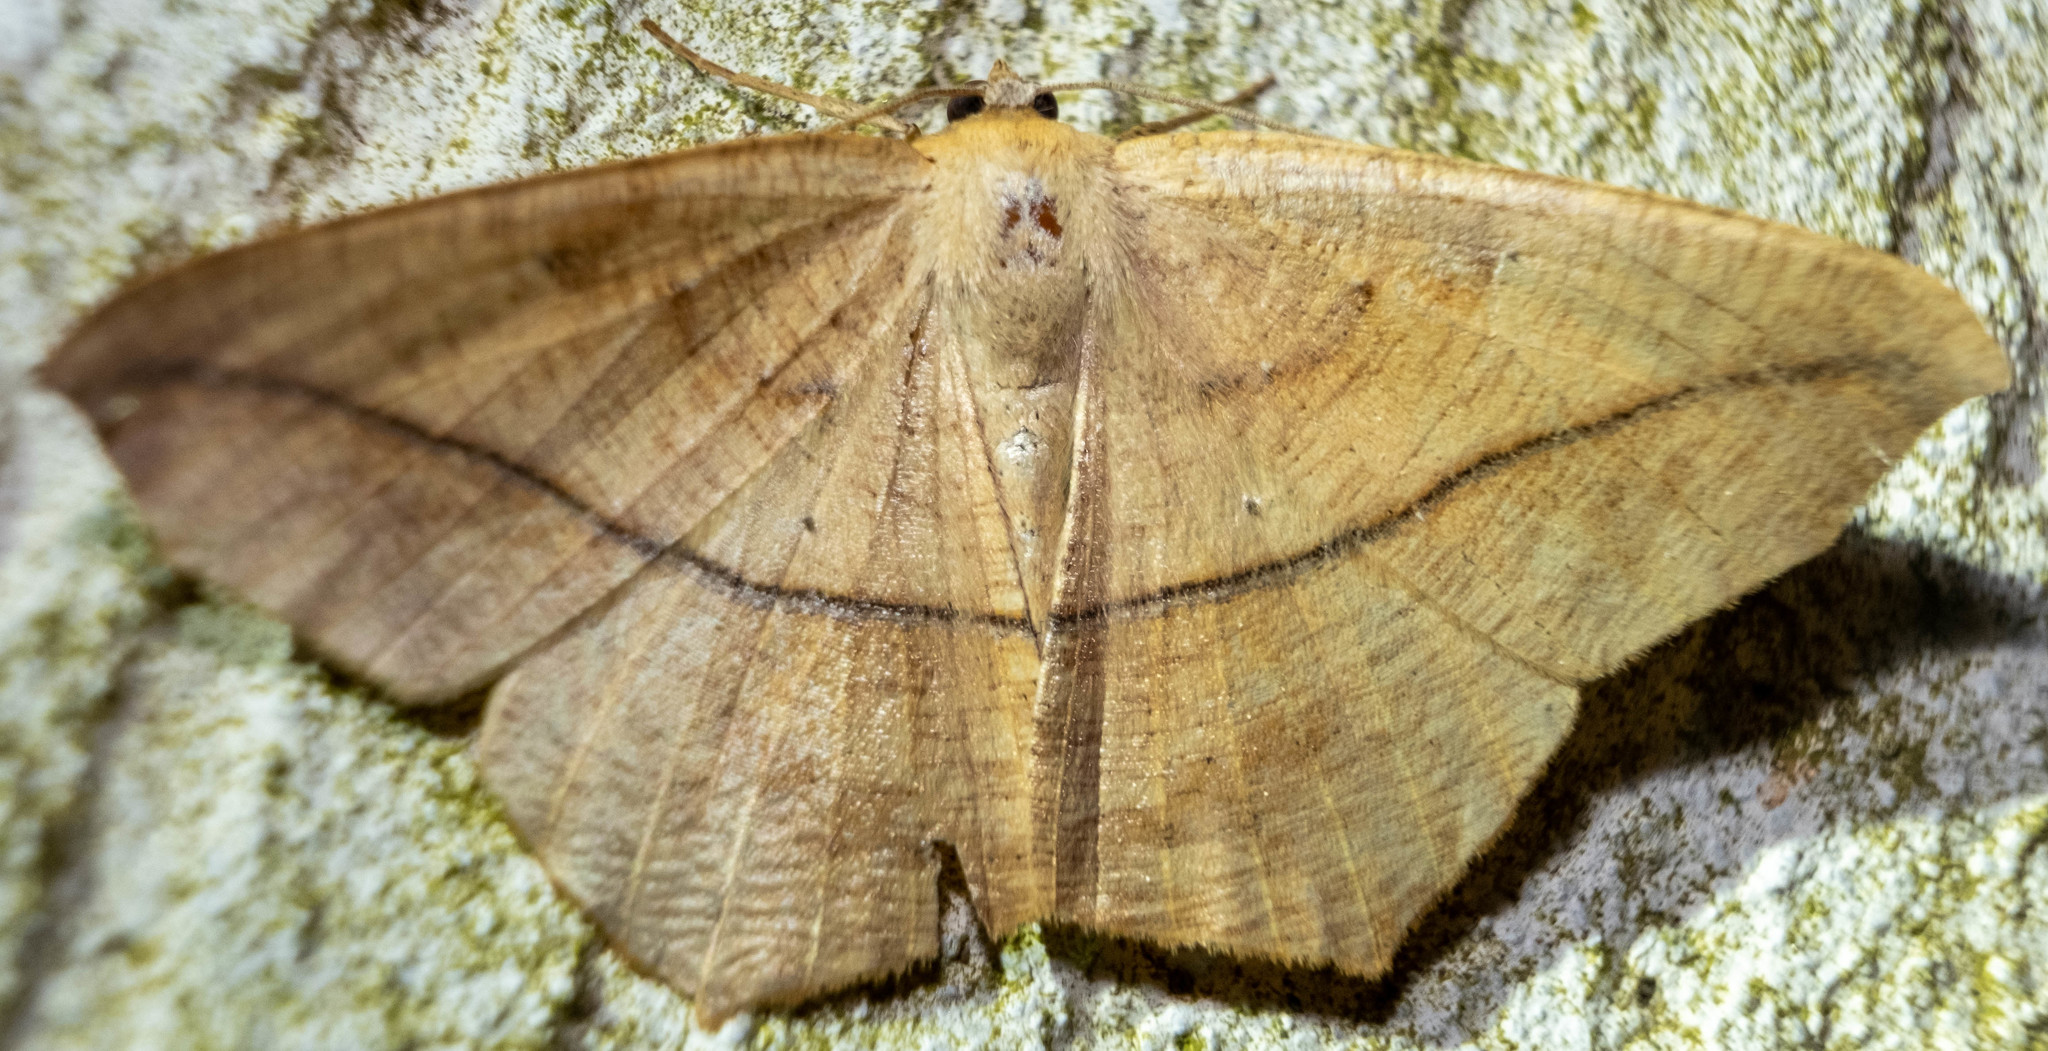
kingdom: Animalia
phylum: Arthropoda
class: Insecta
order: Lepidoptera
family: Geometridae
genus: Prochoerodes
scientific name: Prochoerodes lineola
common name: Large maple spanworm
